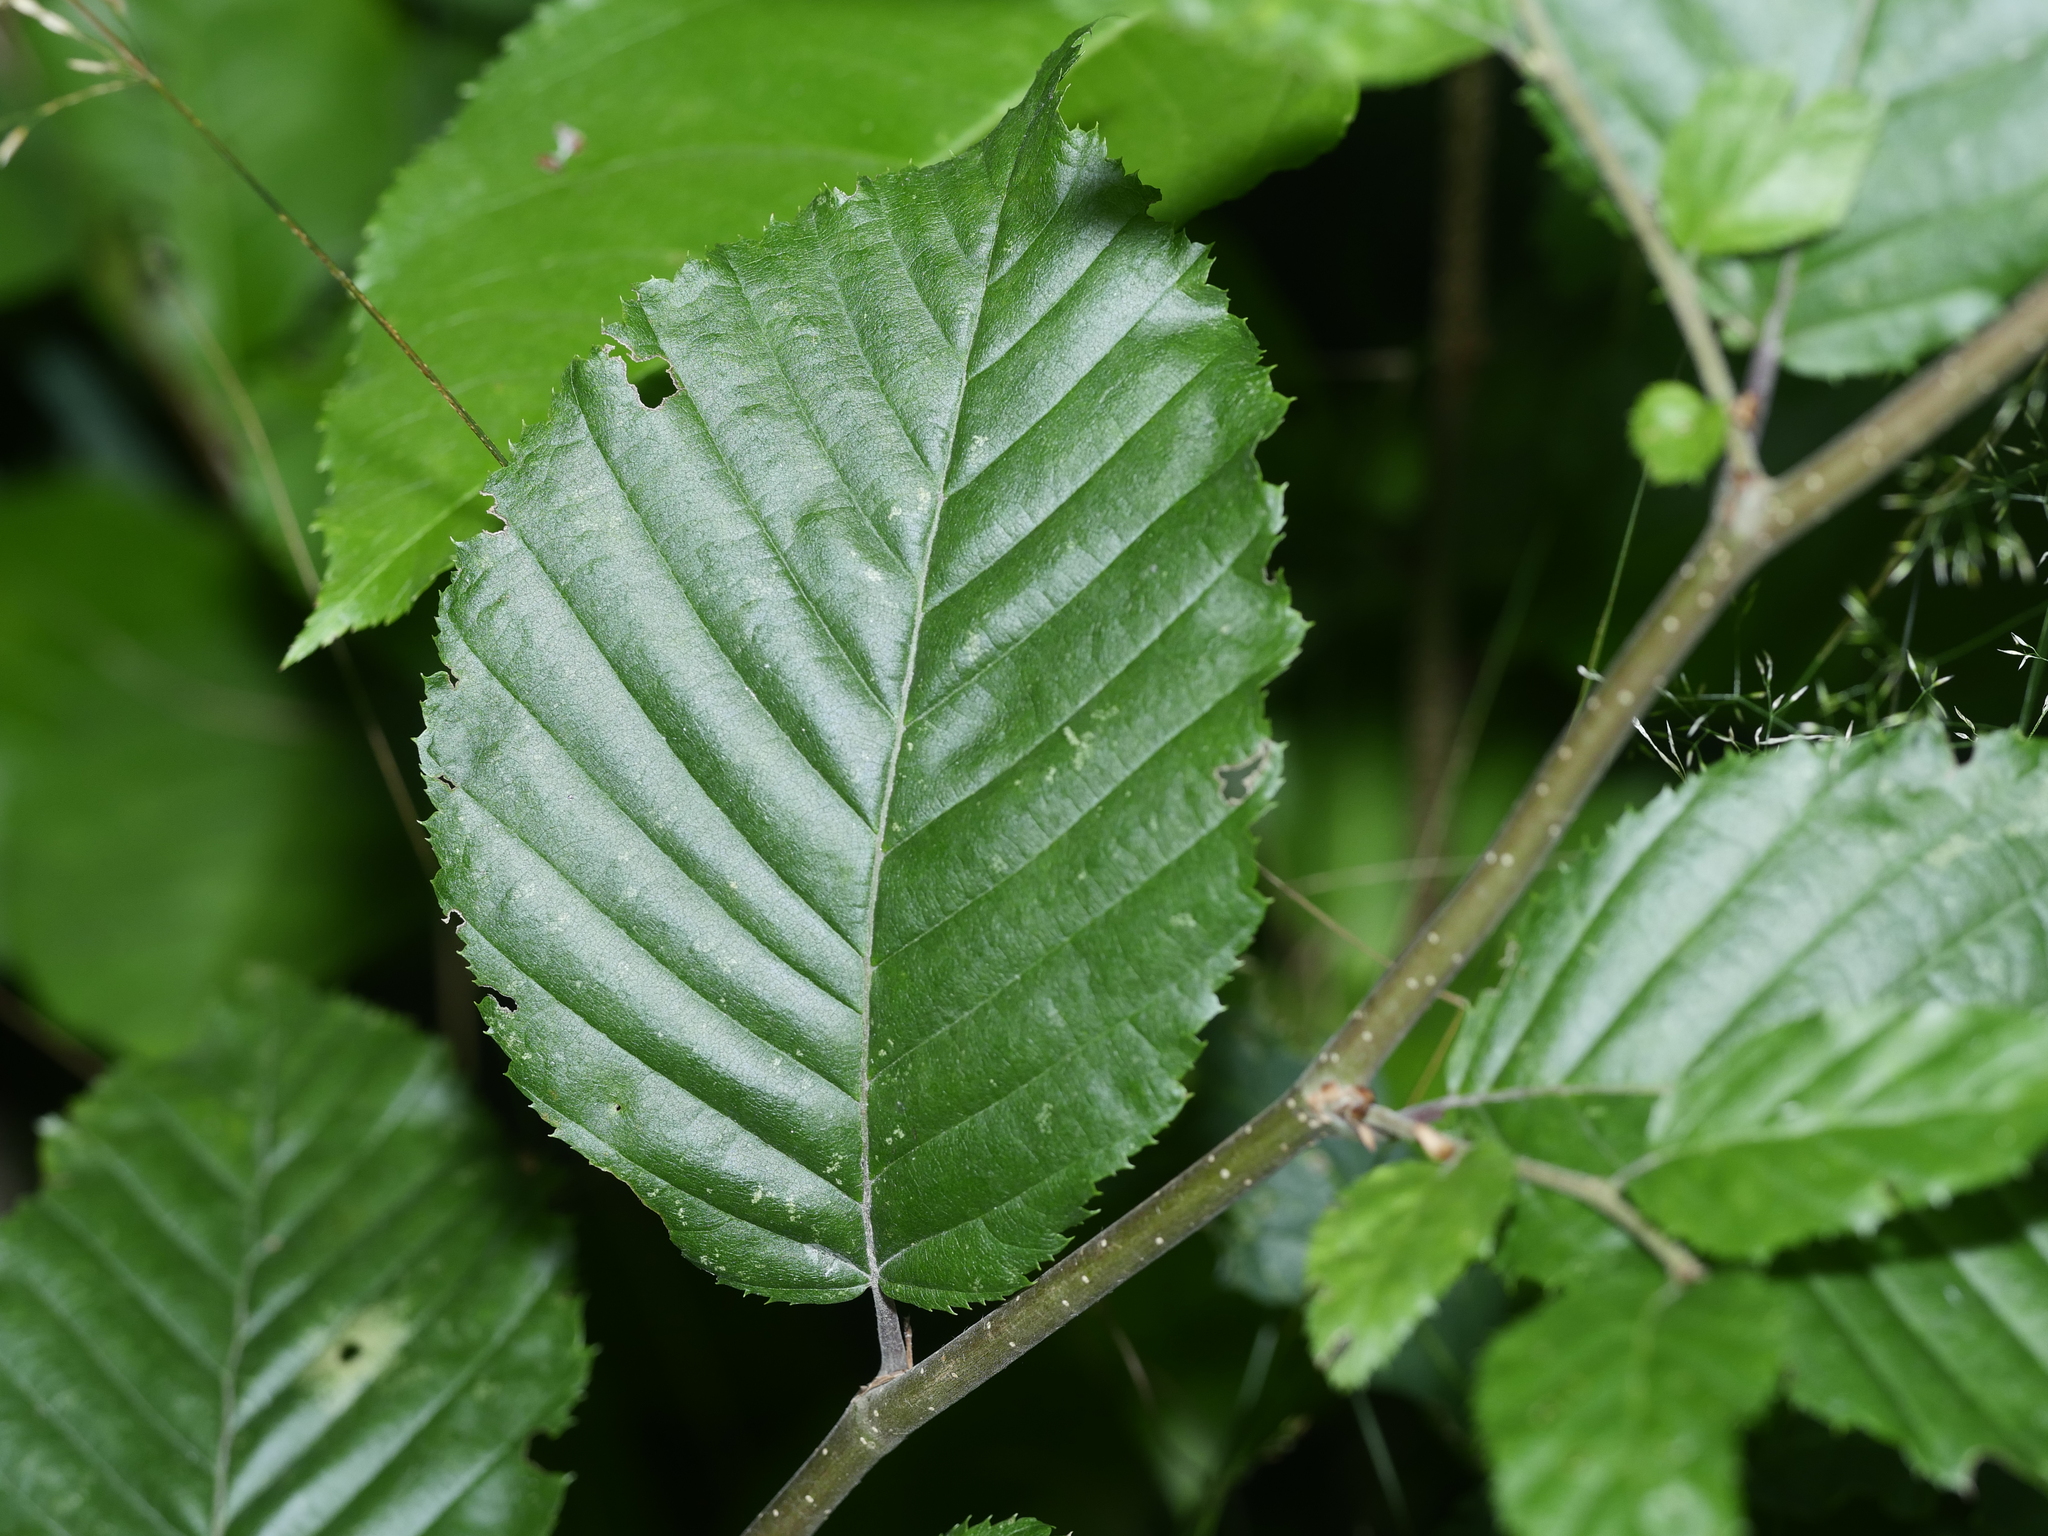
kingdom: Plantae
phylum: Tracheophyta
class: Magnoliopsida
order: Fagales
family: Betulaceae
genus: Carpinus
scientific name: Carpinus betulus
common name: Hornbeam
